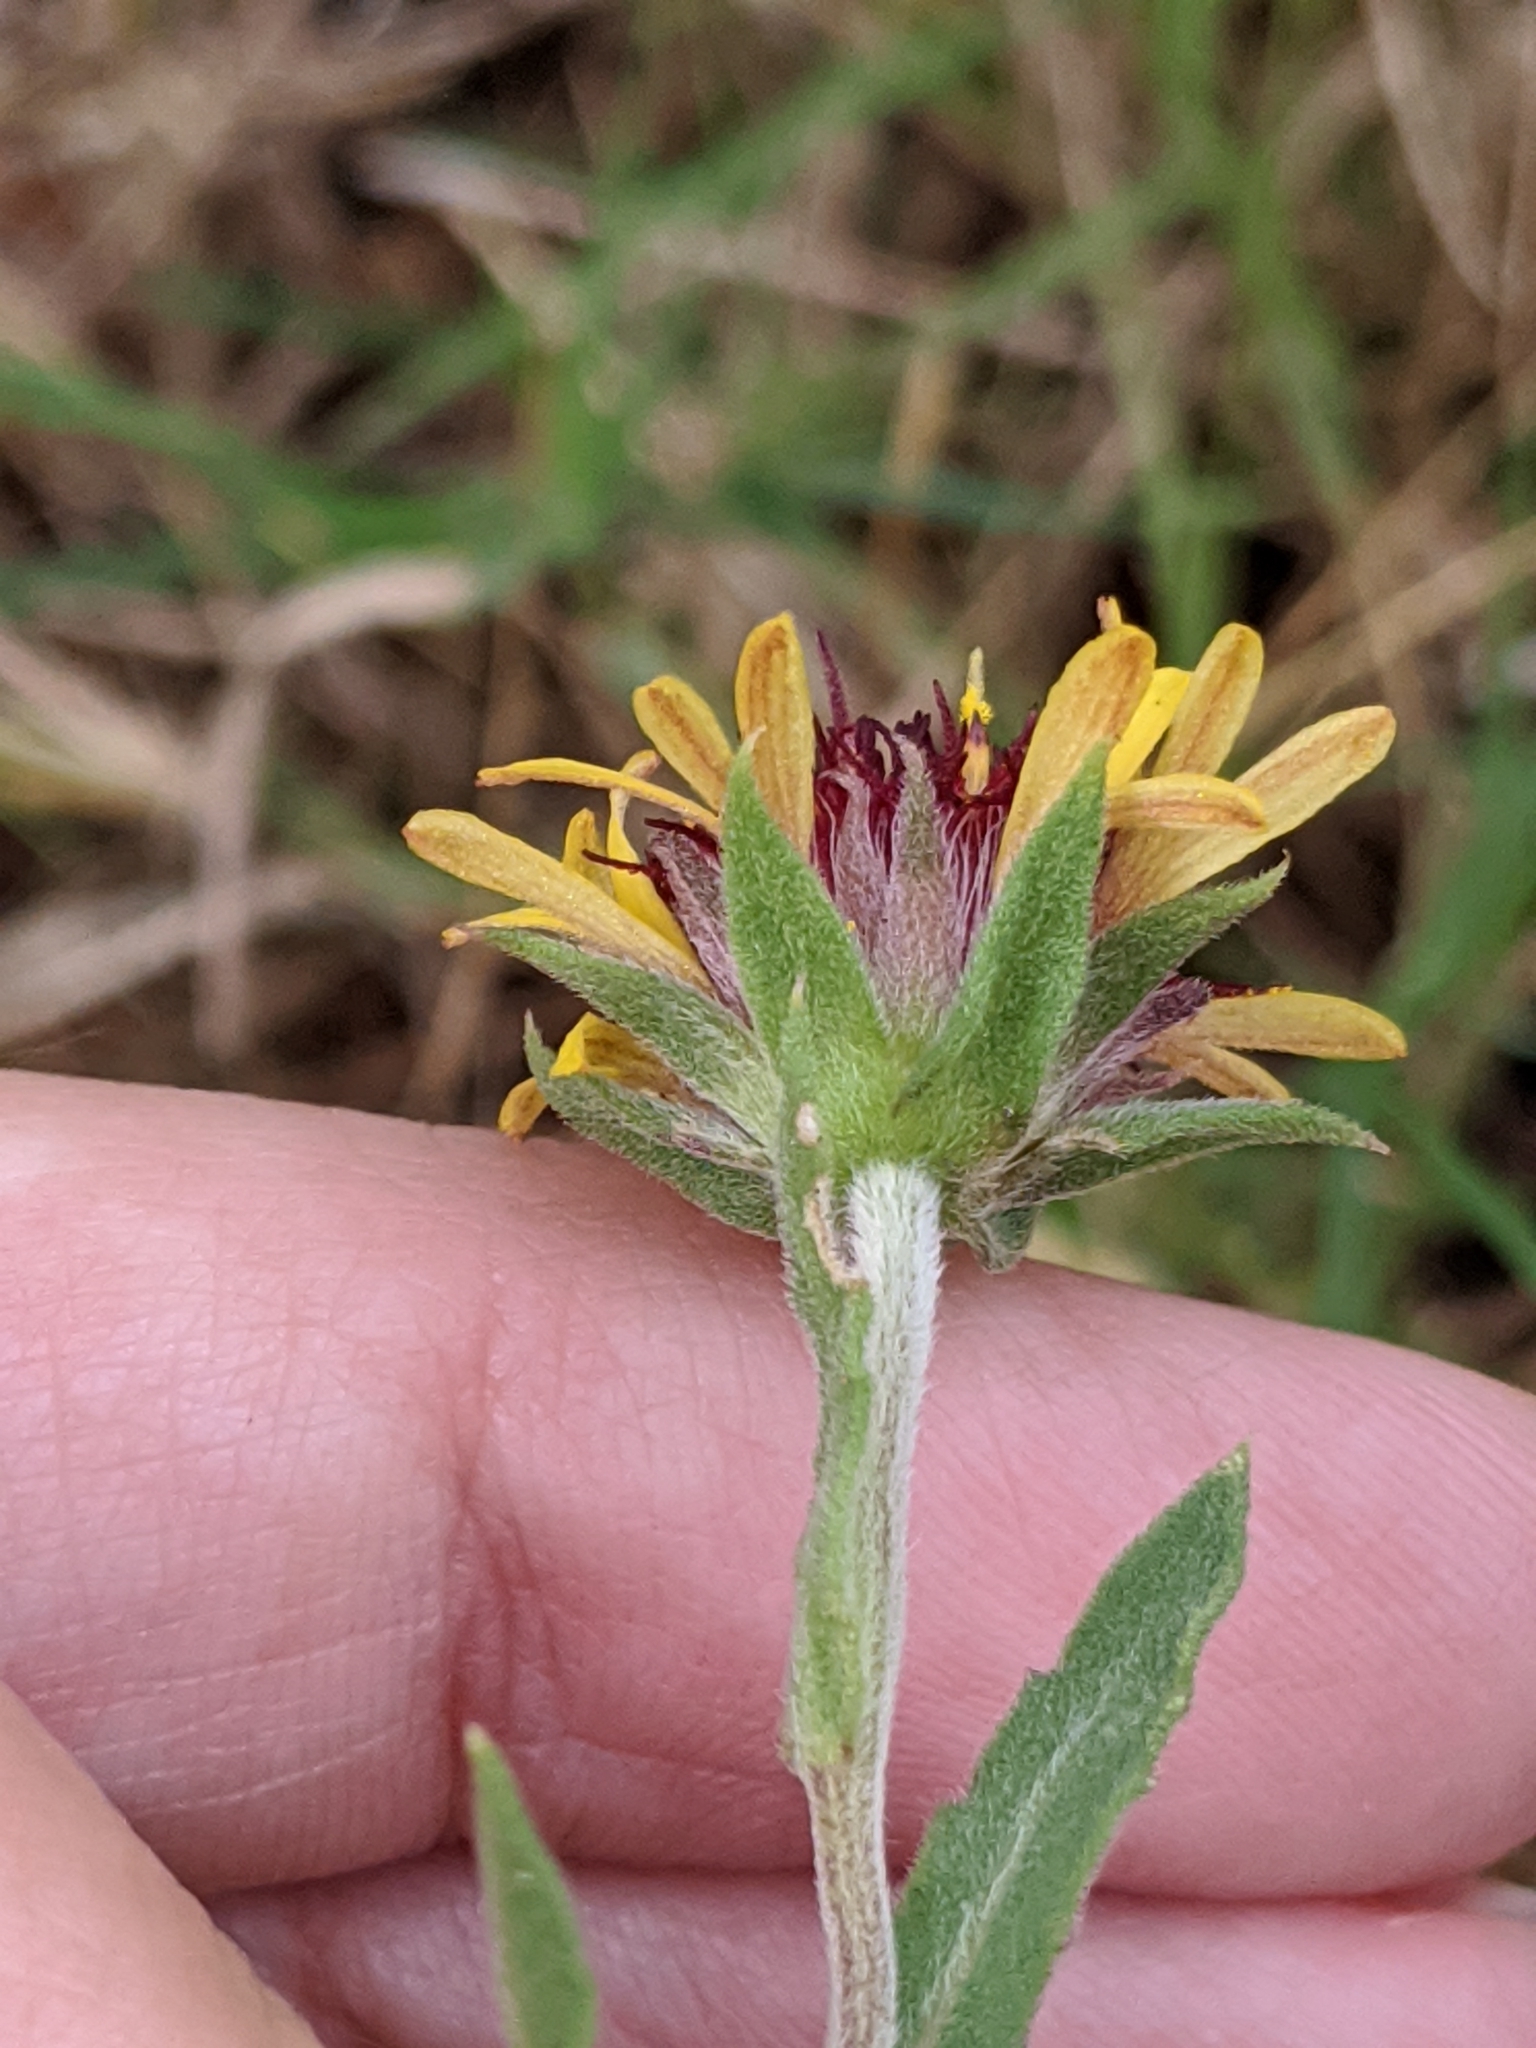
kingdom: Plantae
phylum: Tracheophyta
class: Magnoliopsida
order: Asterales
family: Asteraceae
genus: Gaillardia
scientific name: Gaillardia aestivalis
